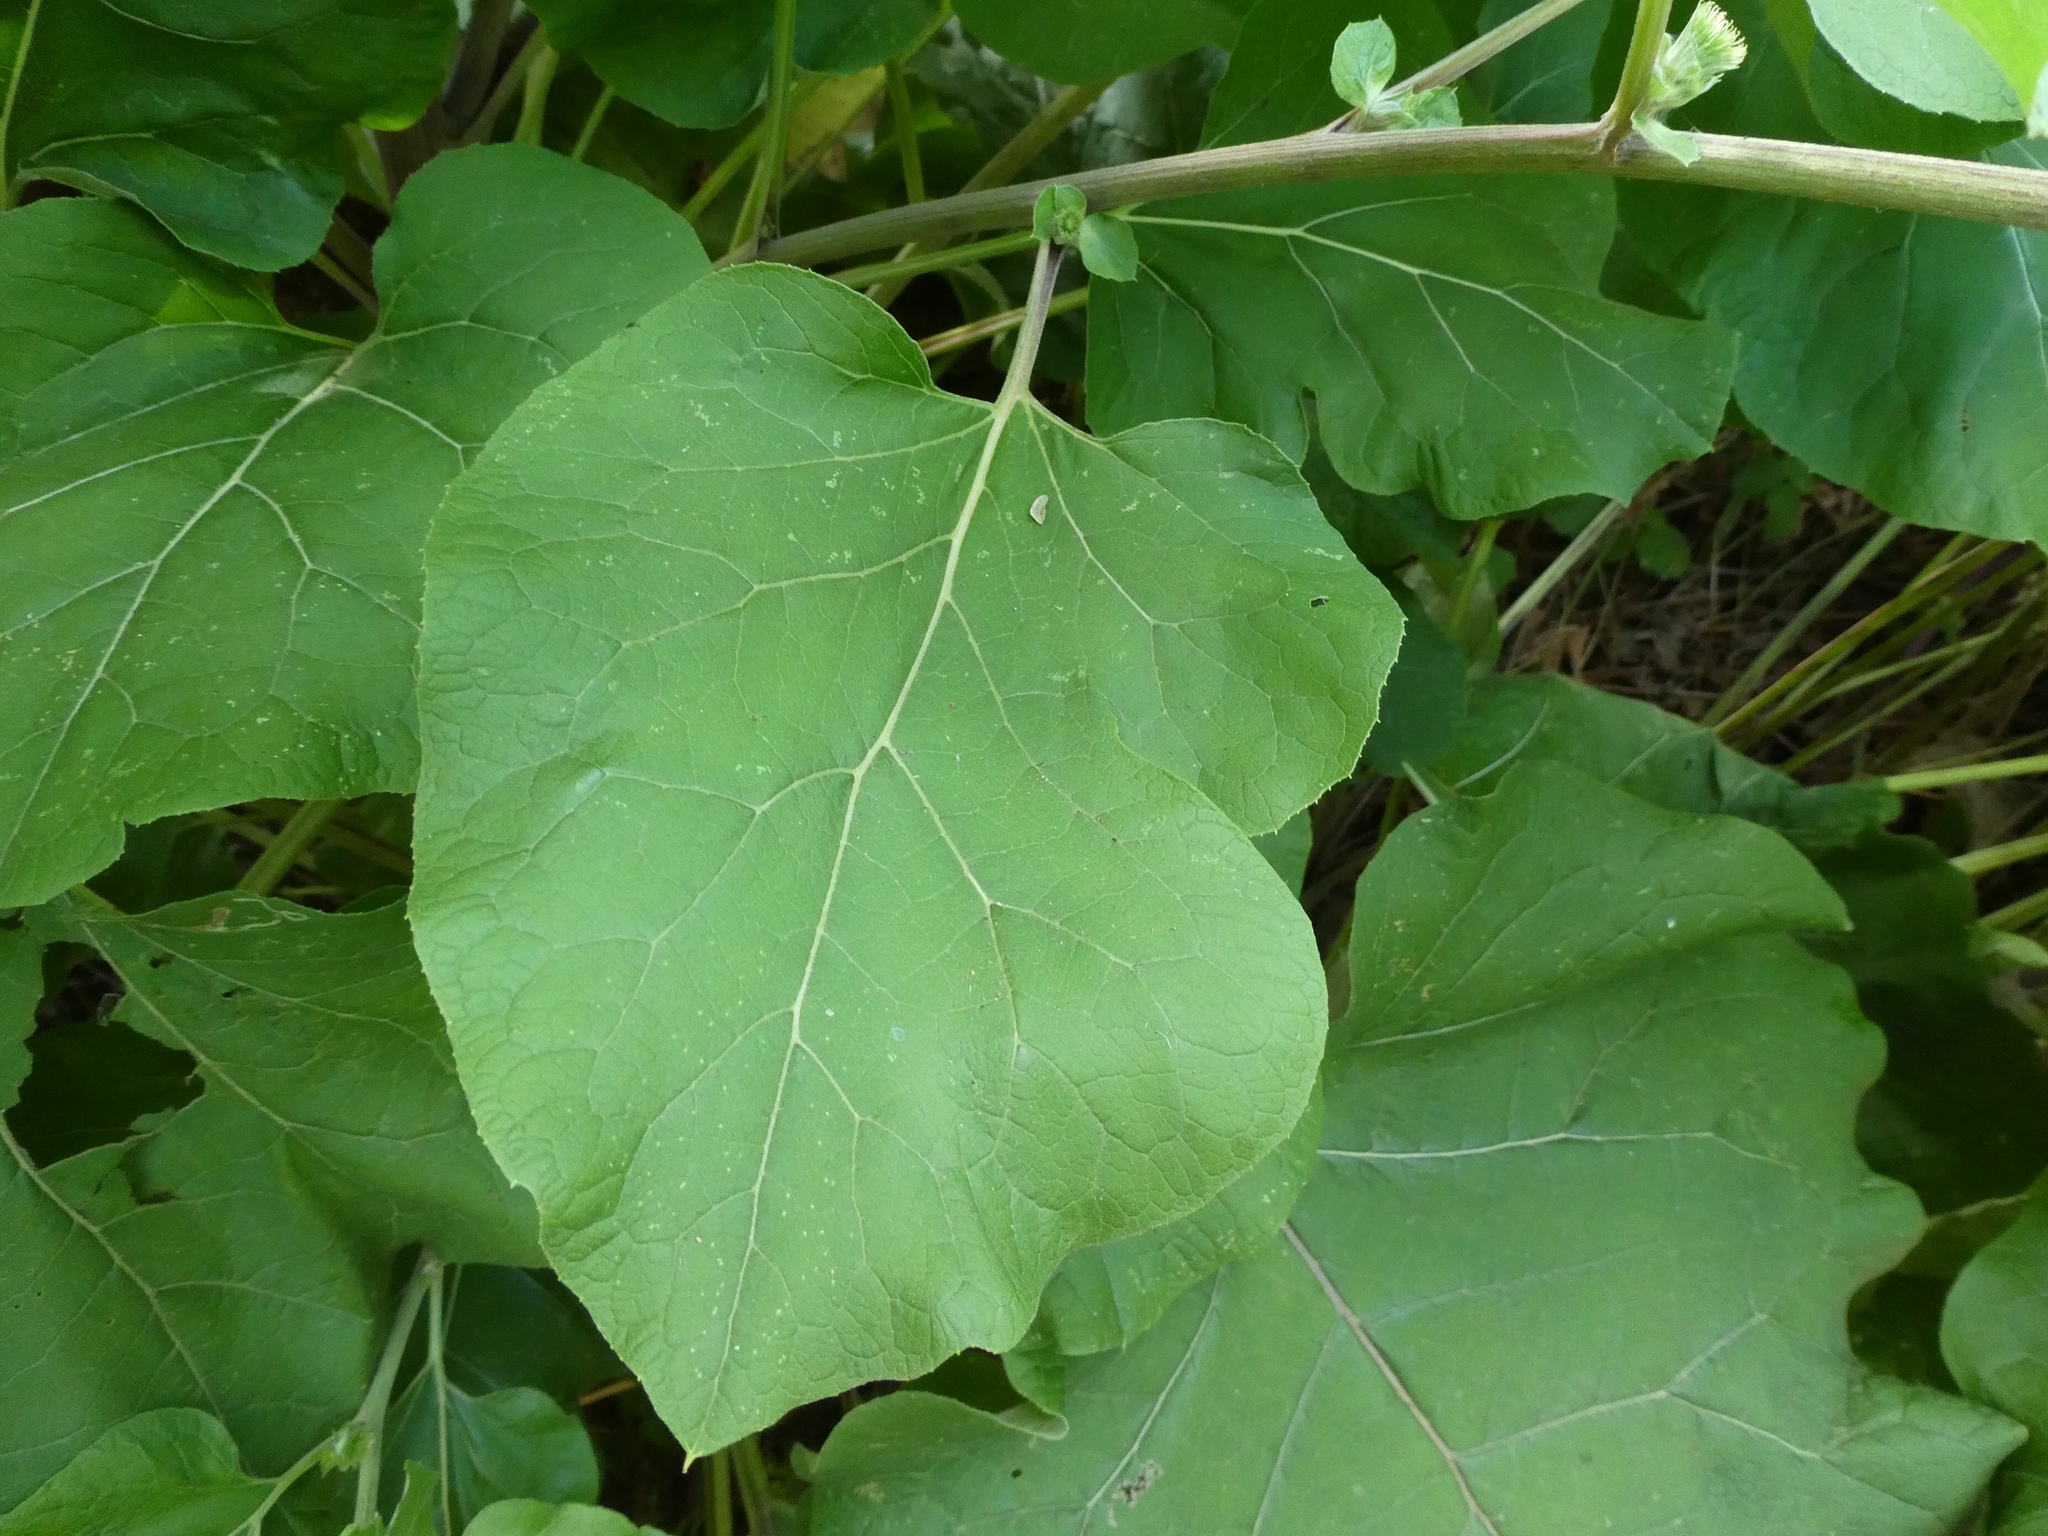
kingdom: Plantae
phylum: Tracheophyta
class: Magnoliopsida
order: Asterales
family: Asteraceae
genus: Arctium
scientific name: Arctium lappa
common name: Greater burdock
